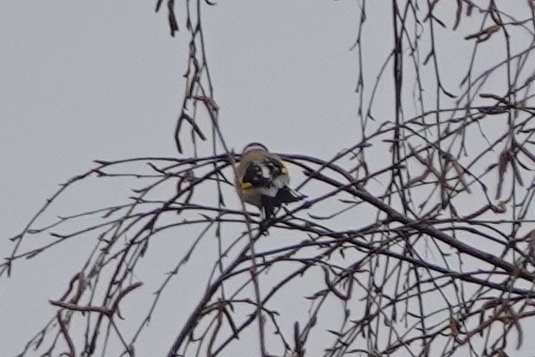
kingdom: Animalia
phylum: Chordata
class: Aves
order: Passeriformes
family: Fringillidae
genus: Carduelis
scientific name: Carduelis carduelis
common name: European goldfinch
